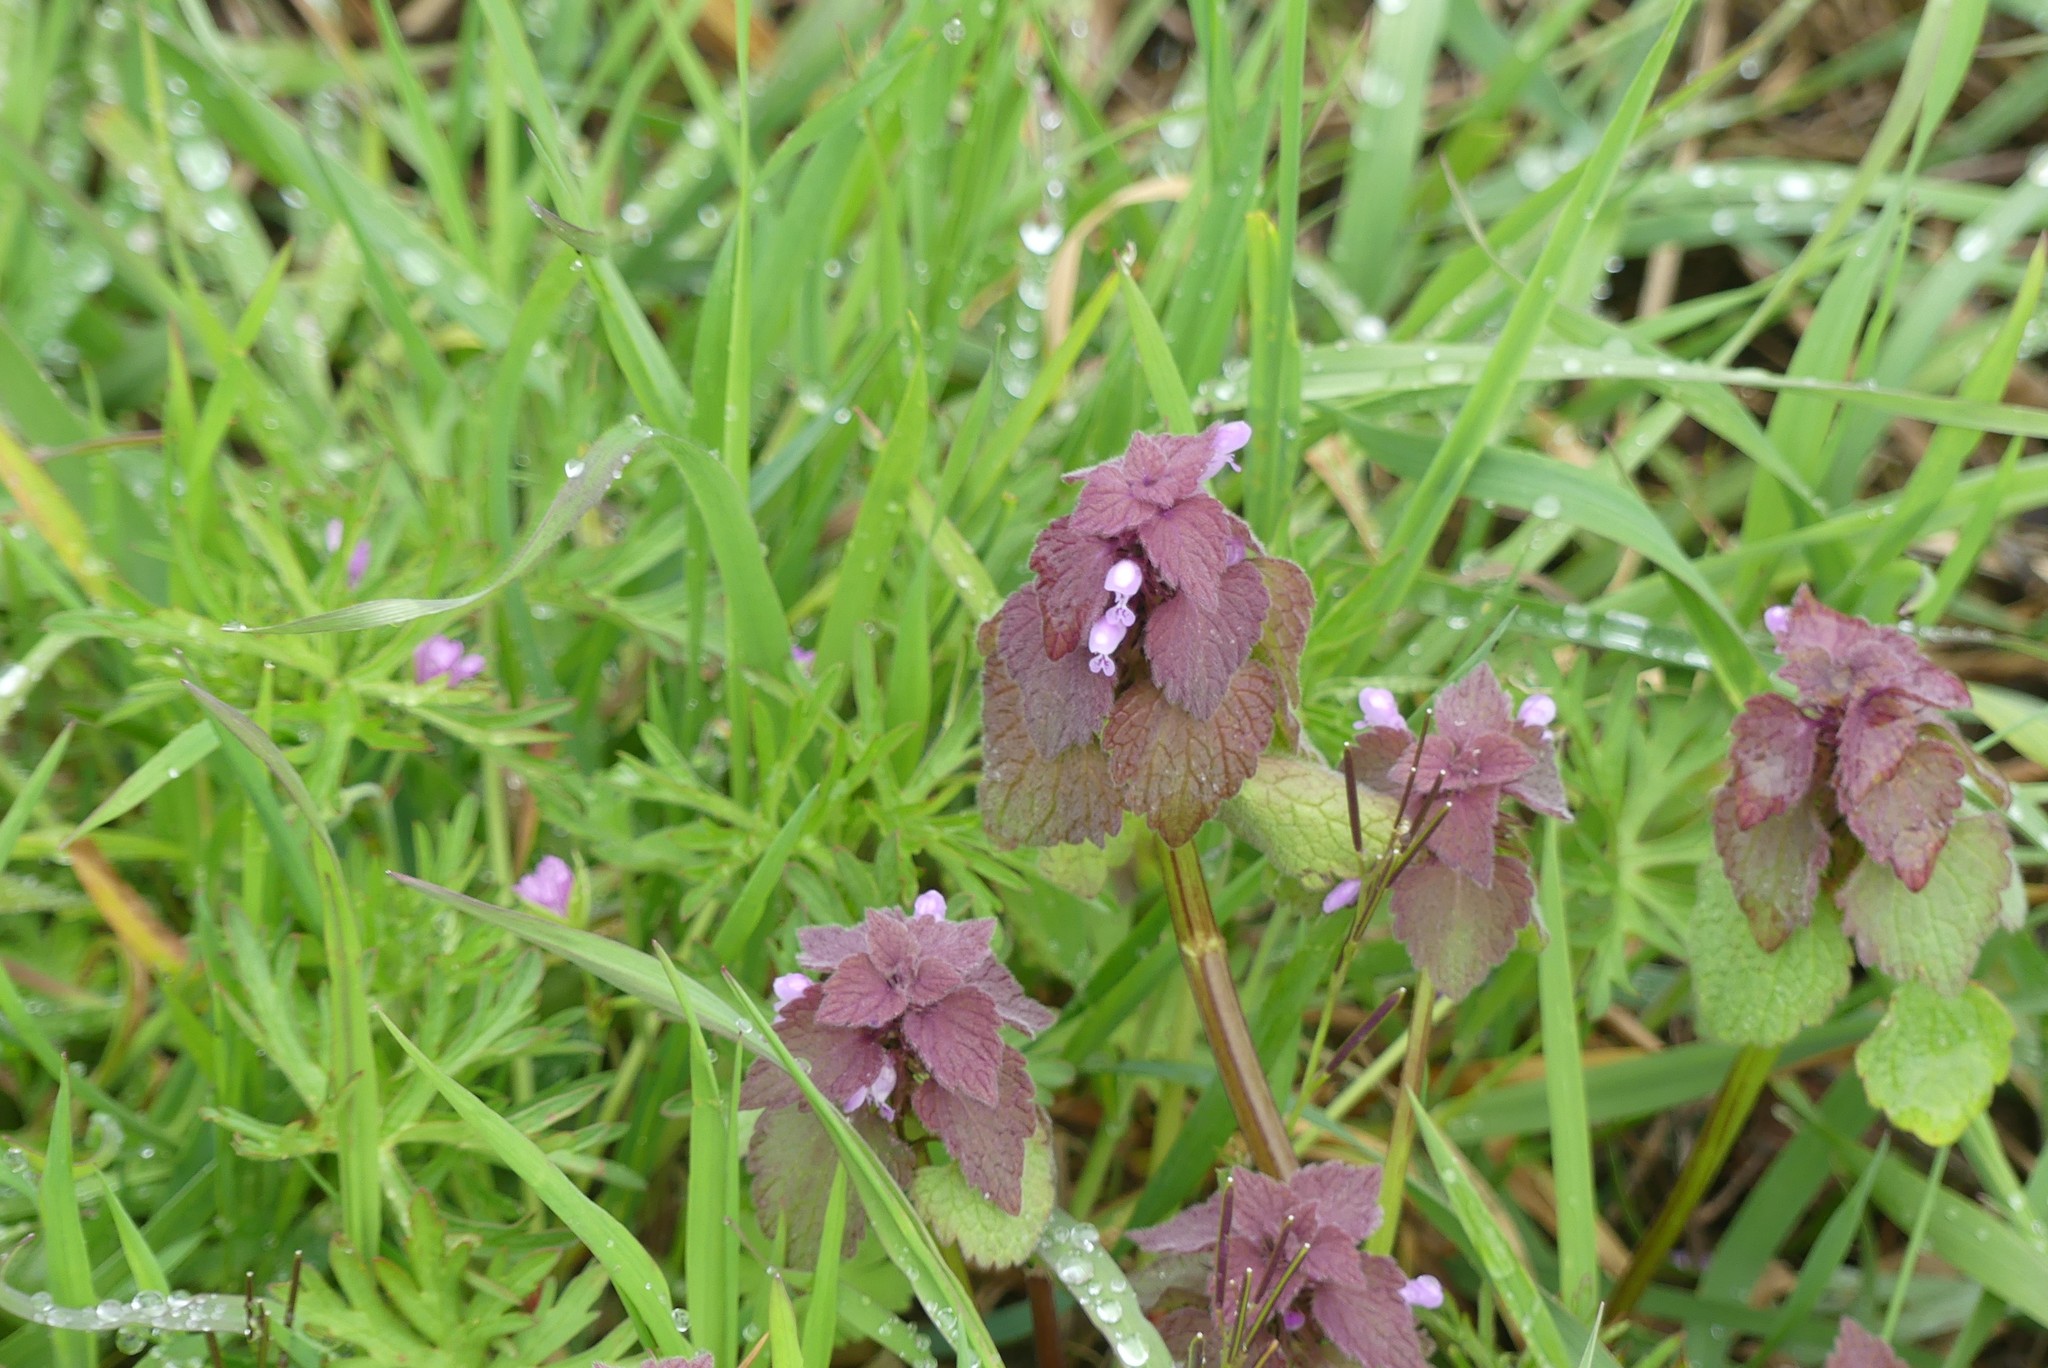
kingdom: Plantae
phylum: Tracheophyta
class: Magnoliopsida
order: Lamiales
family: Lamiaceae
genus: Lamium
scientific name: Lamium purpureum
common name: Red dead-nettle
